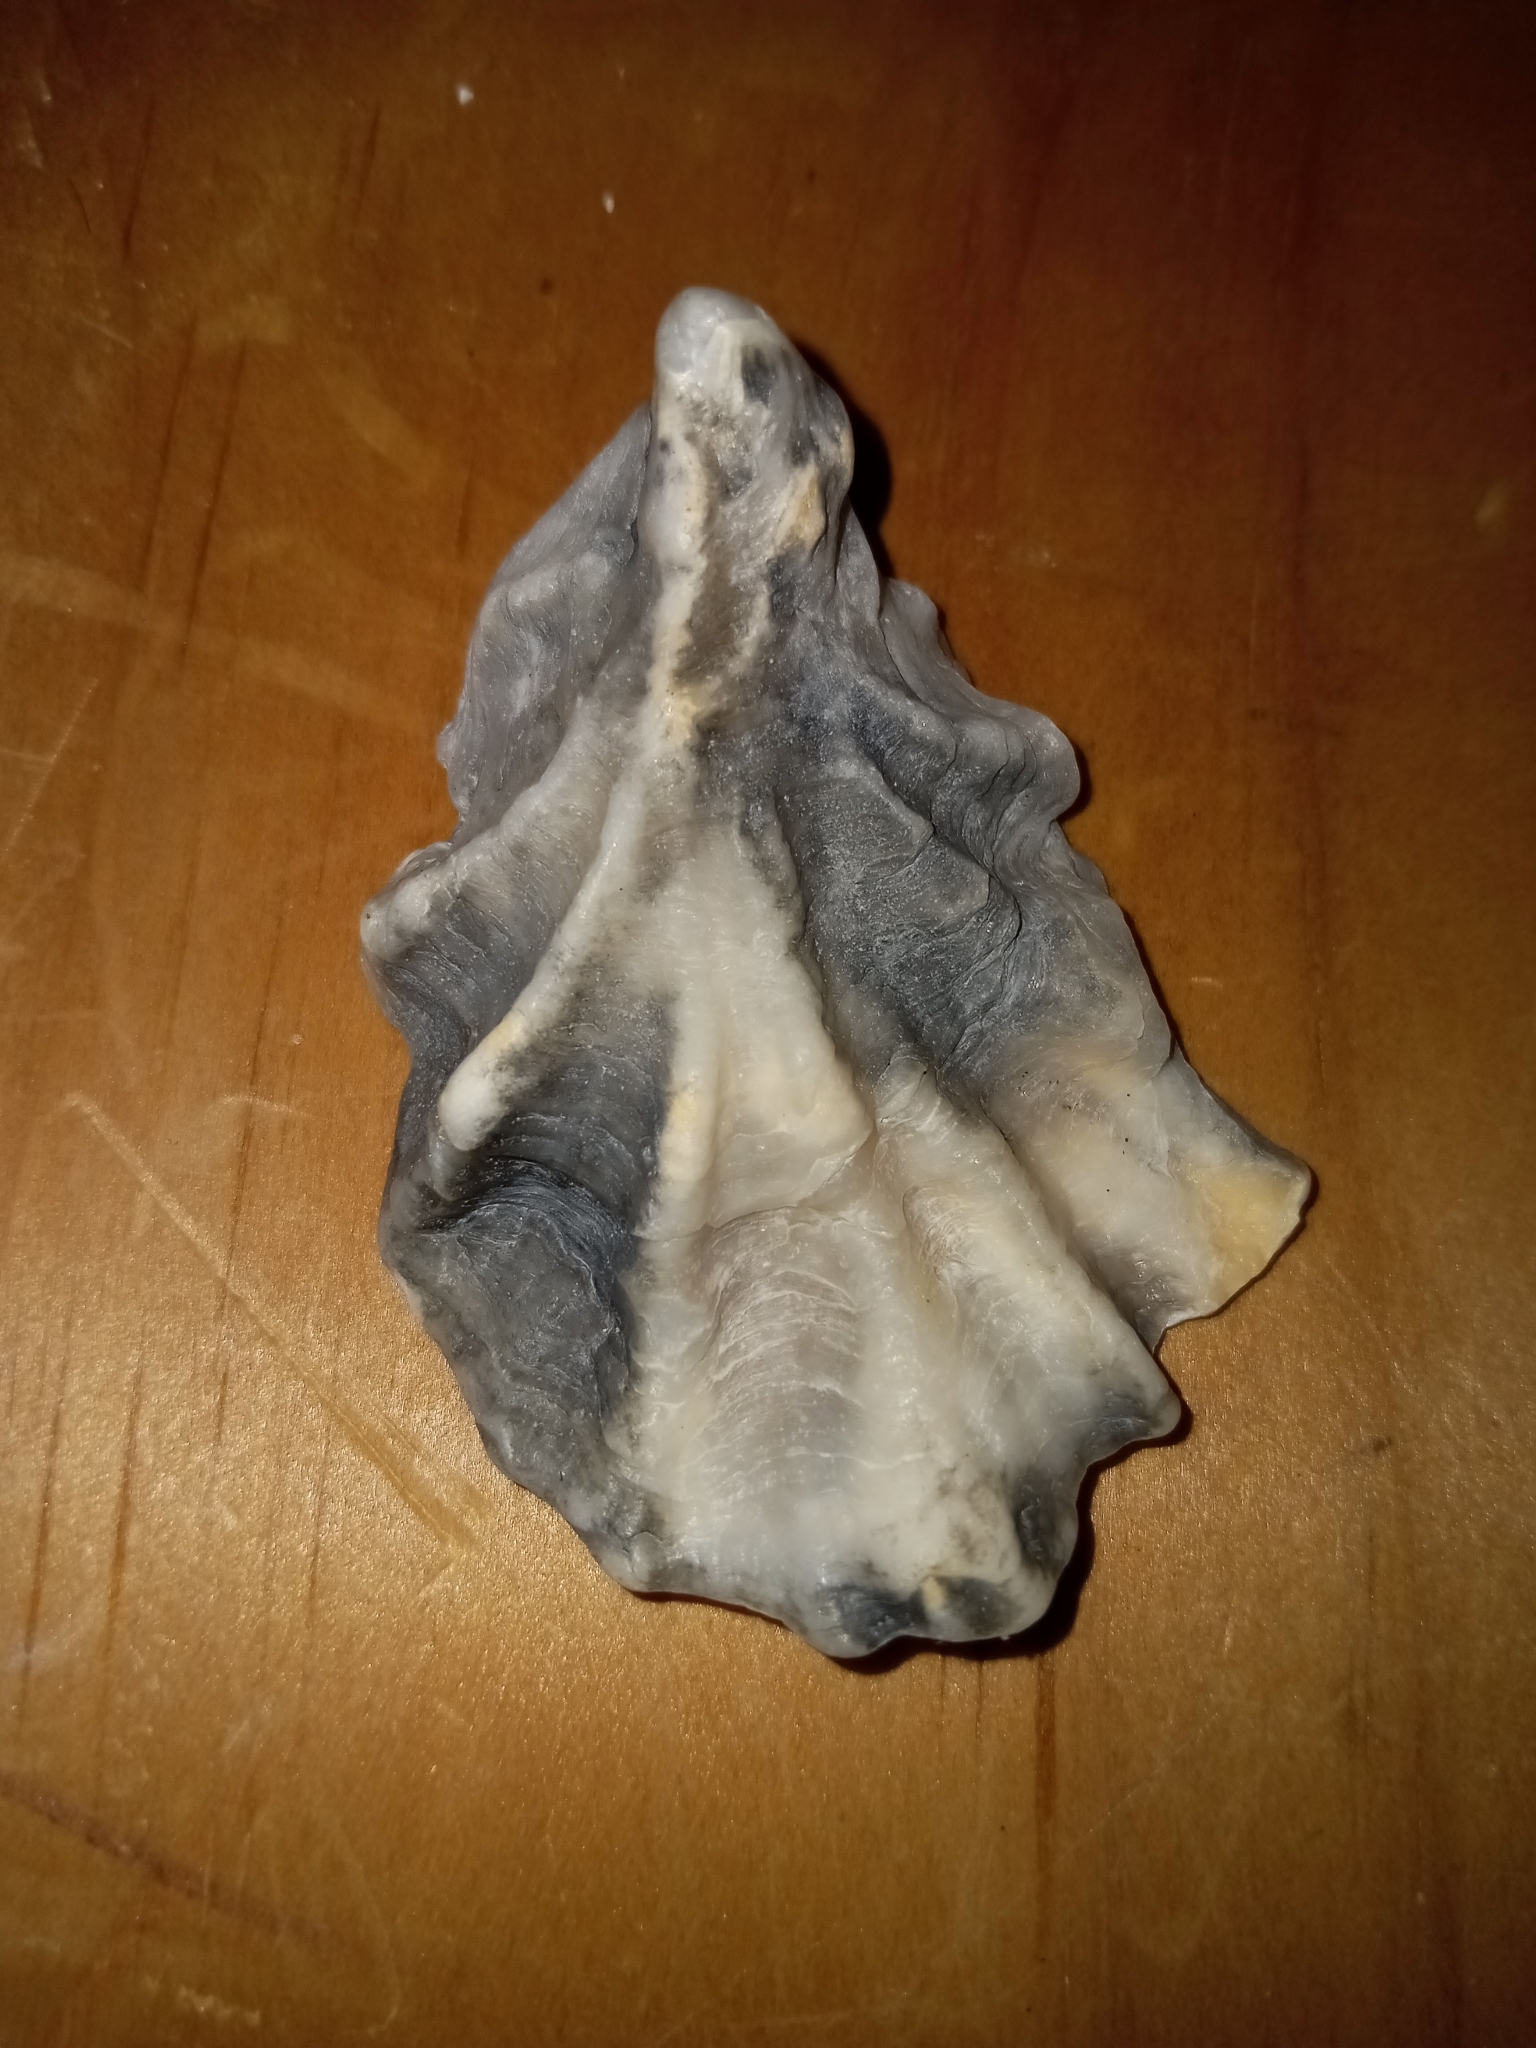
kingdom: Animalia
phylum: Mollusca
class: Bivalvia
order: Ostreida
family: Ostreidae
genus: Crassostrea
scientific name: Crassostrea virginica
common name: American oyster
